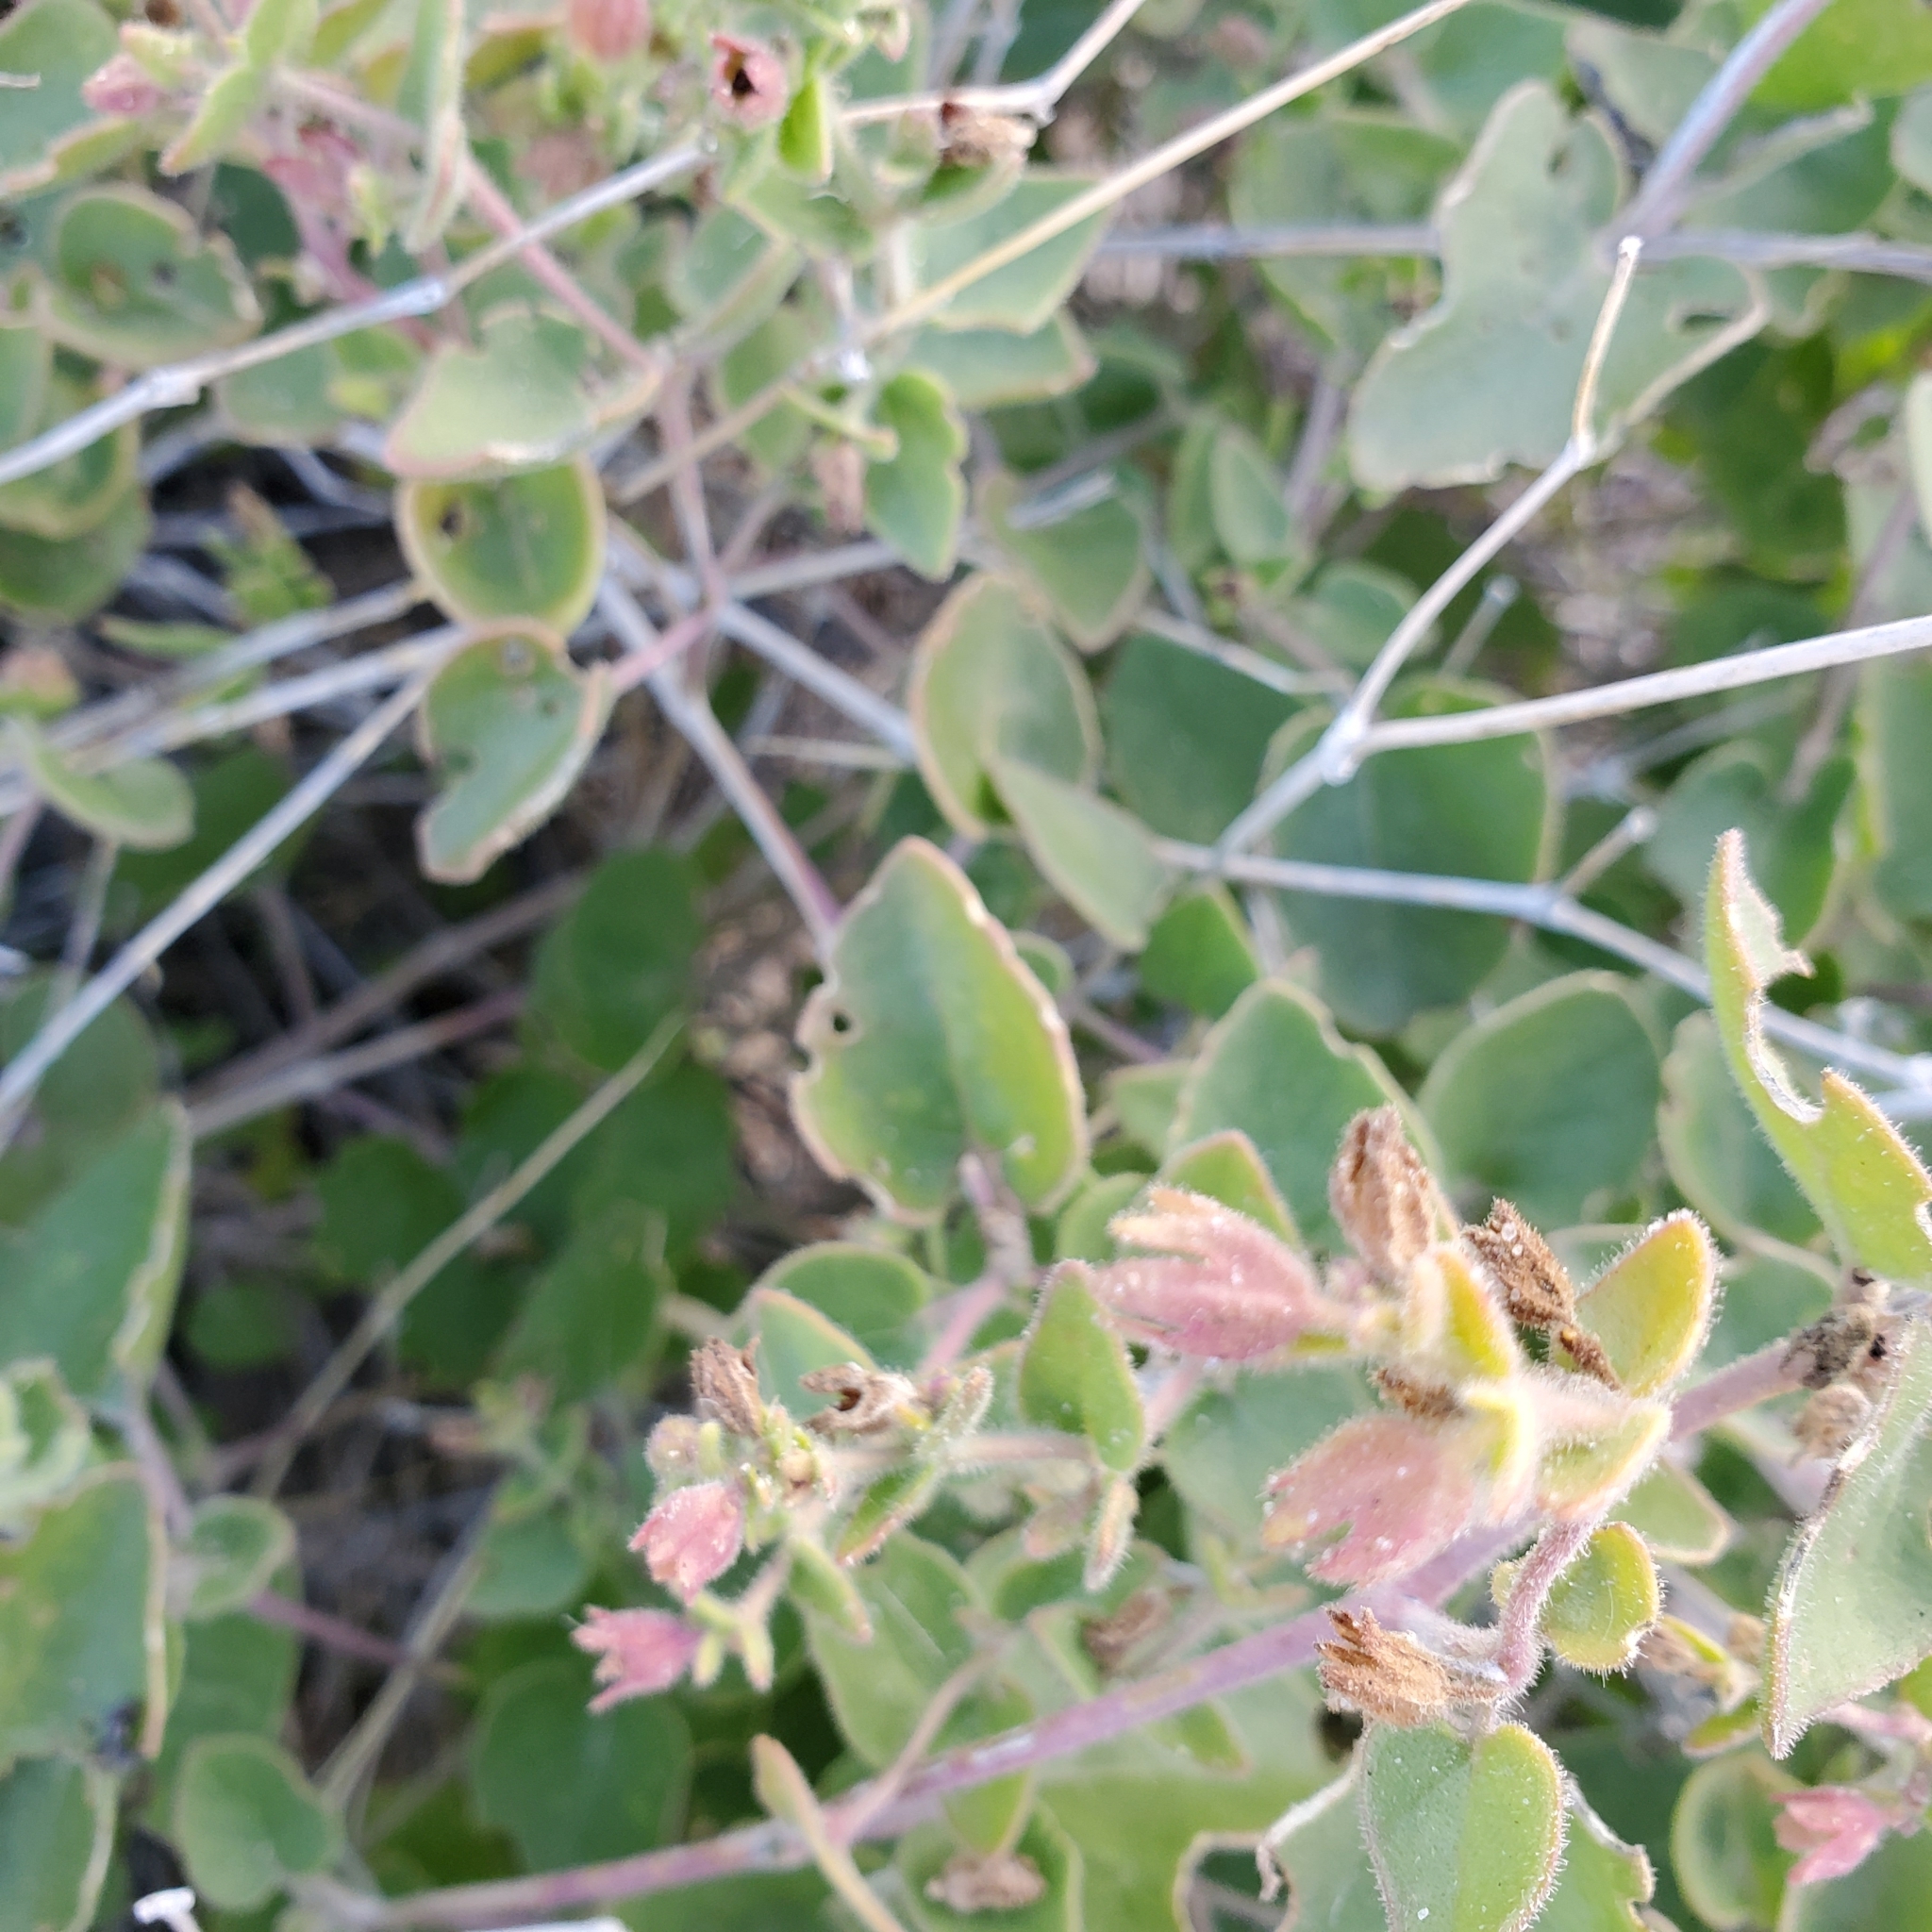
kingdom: Plantae
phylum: Tracheophyta
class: Magnoliopsida
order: Caryophyllales
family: Nyctaginaceae
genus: Mirabilis
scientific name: Mirabilis laevis
